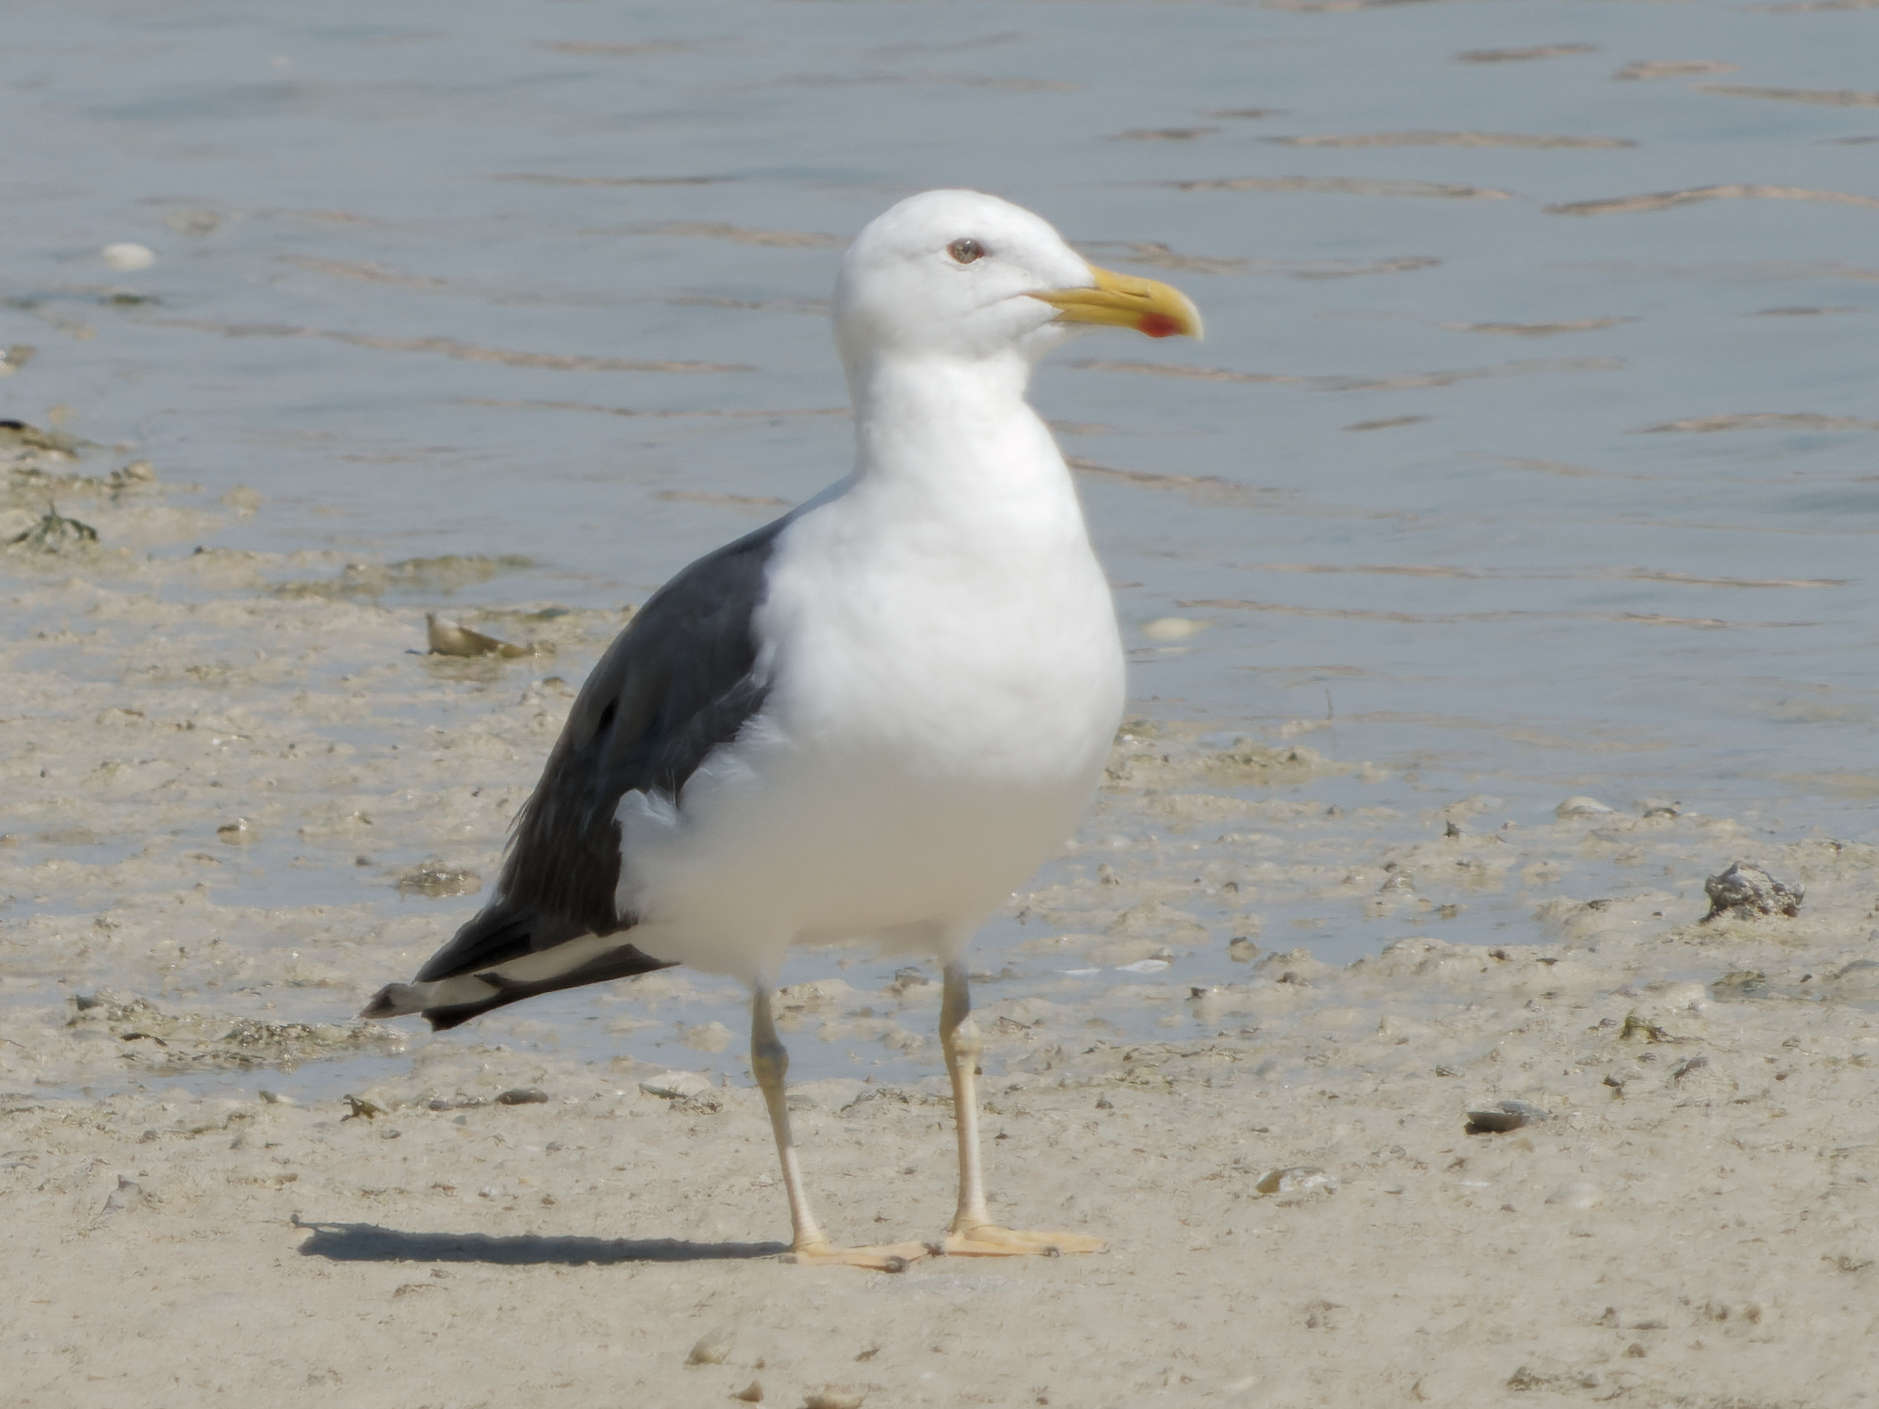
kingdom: Animalia
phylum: Chordata
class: Aves
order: Charadriiformes
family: Laridae
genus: Larus
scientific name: Larus fuscus
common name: Lesser black-backed gull
